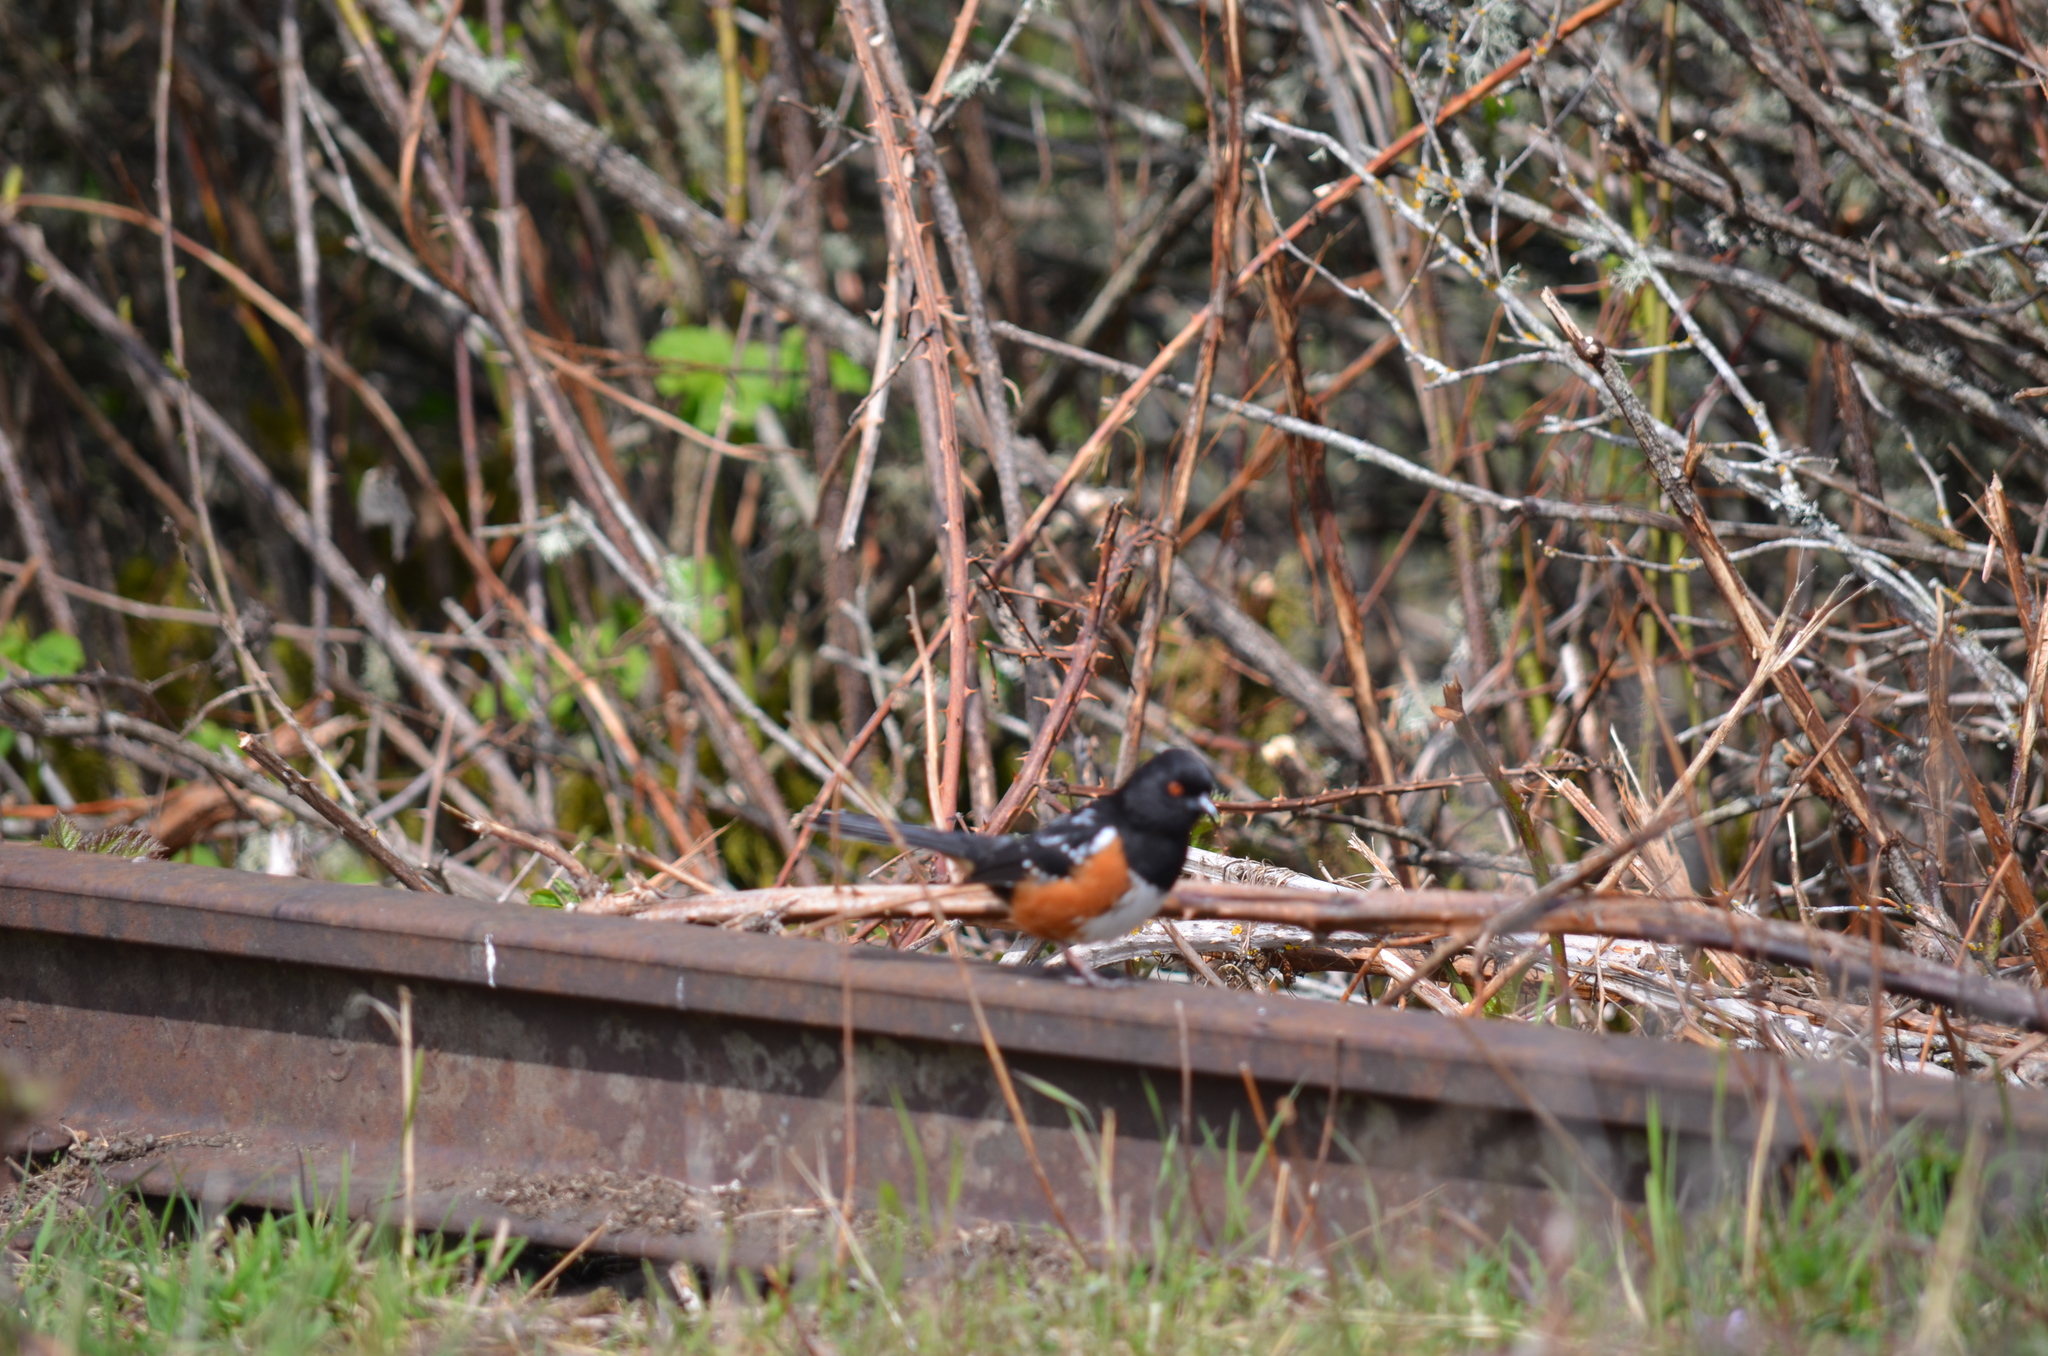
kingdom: Animalia
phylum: Chordata
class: Aves
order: Passeriformes
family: Passerellidae
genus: Pipilo
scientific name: Pipilo maculatus
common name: Spotted towhee
